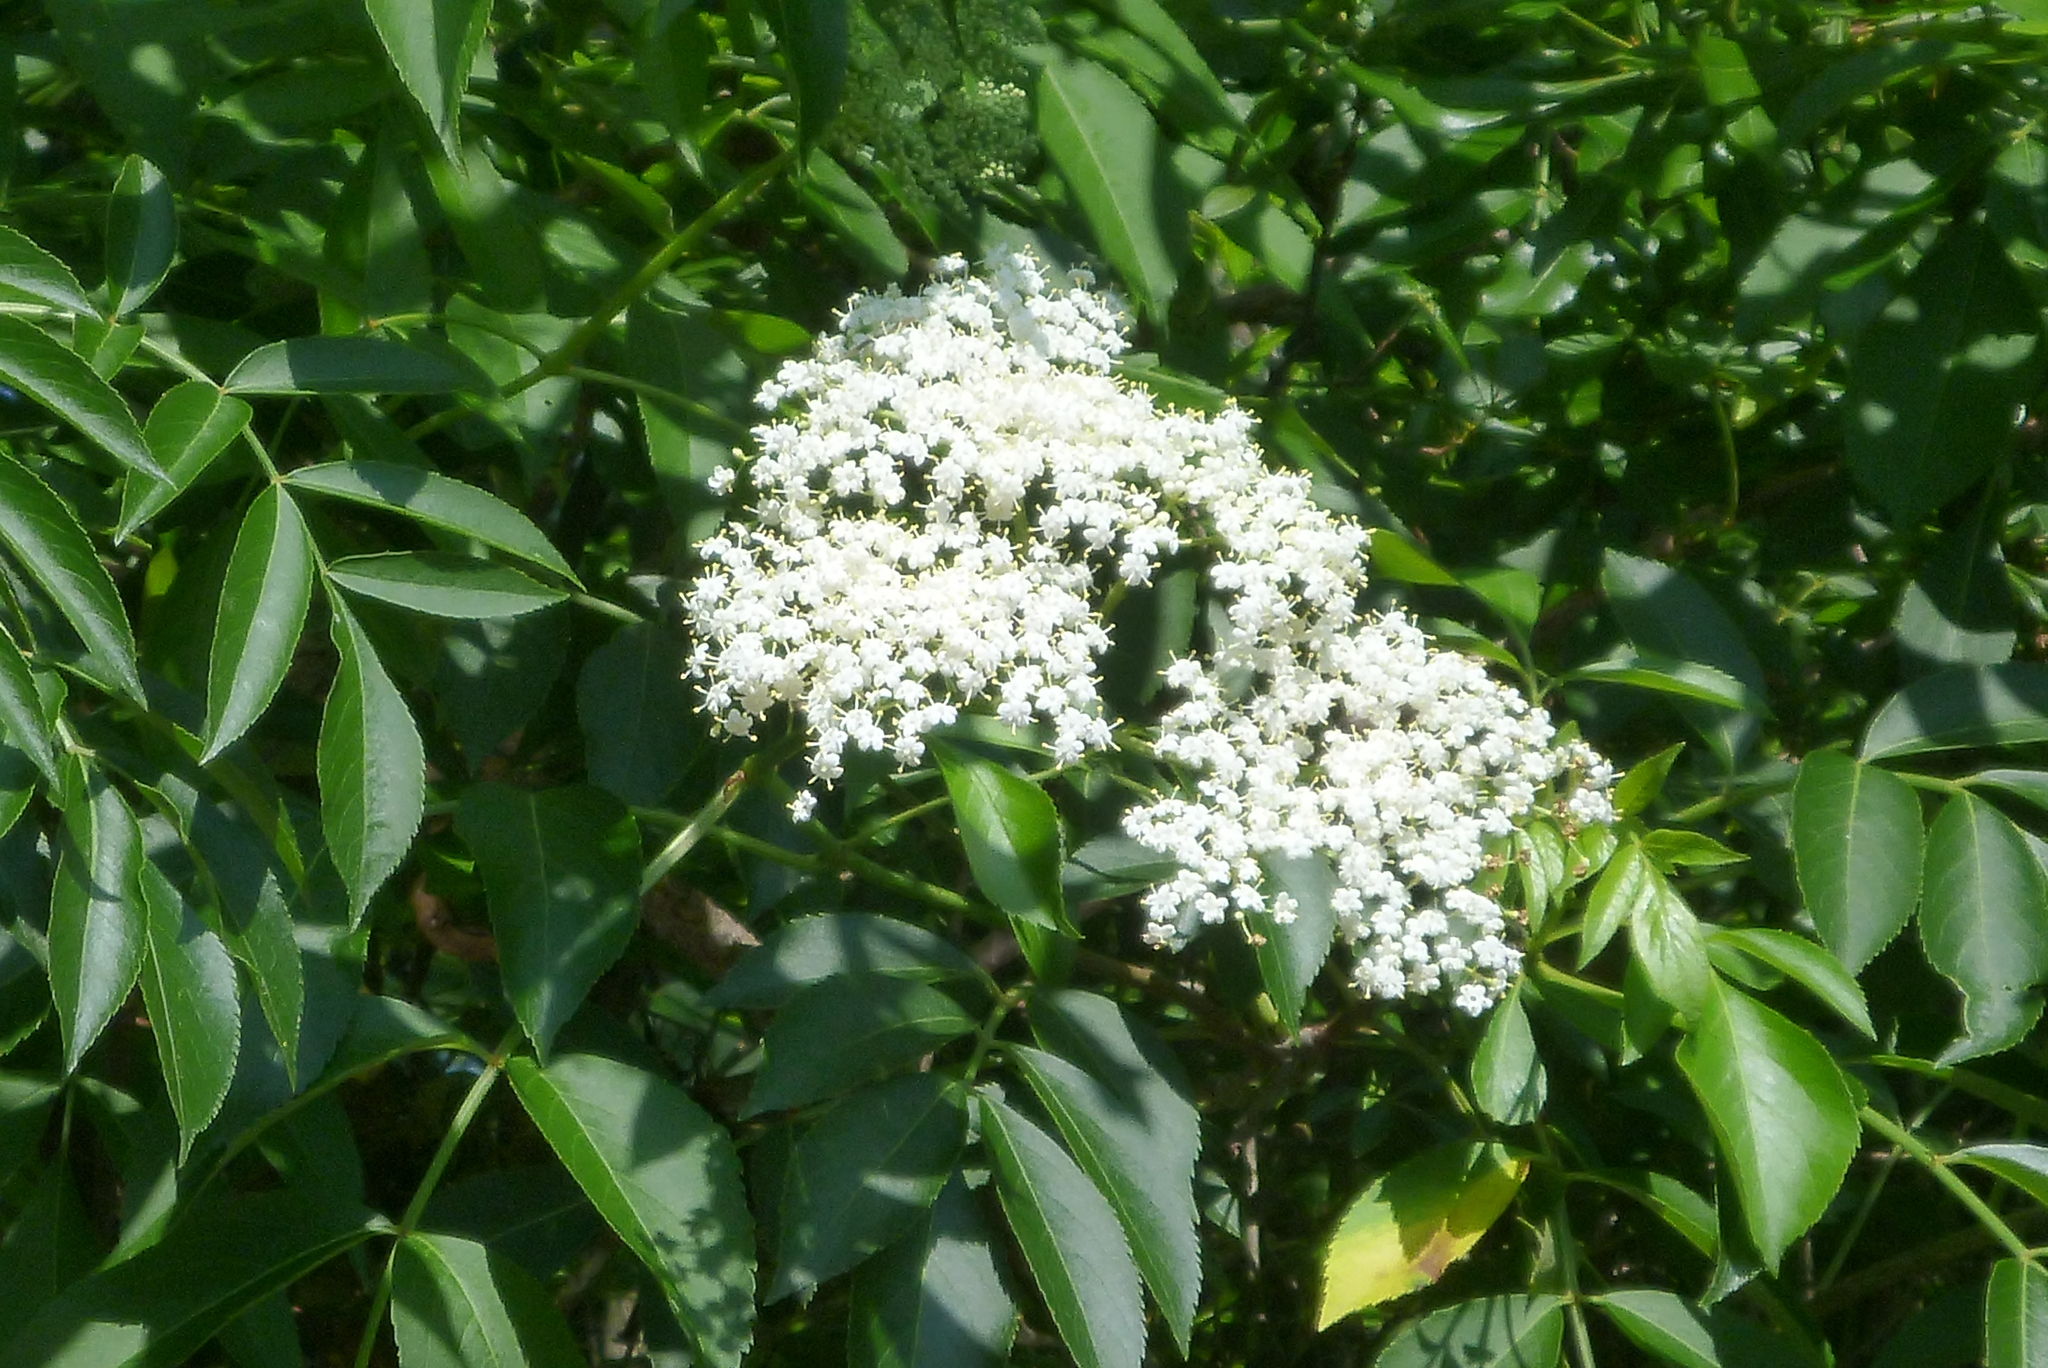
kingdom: Plantae
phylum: Tracheophyta
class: Magnoliopsida
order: Dipsacales
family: Viburnaceae
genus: Sambucus
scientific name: Sambucus canadensis
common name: American elder
